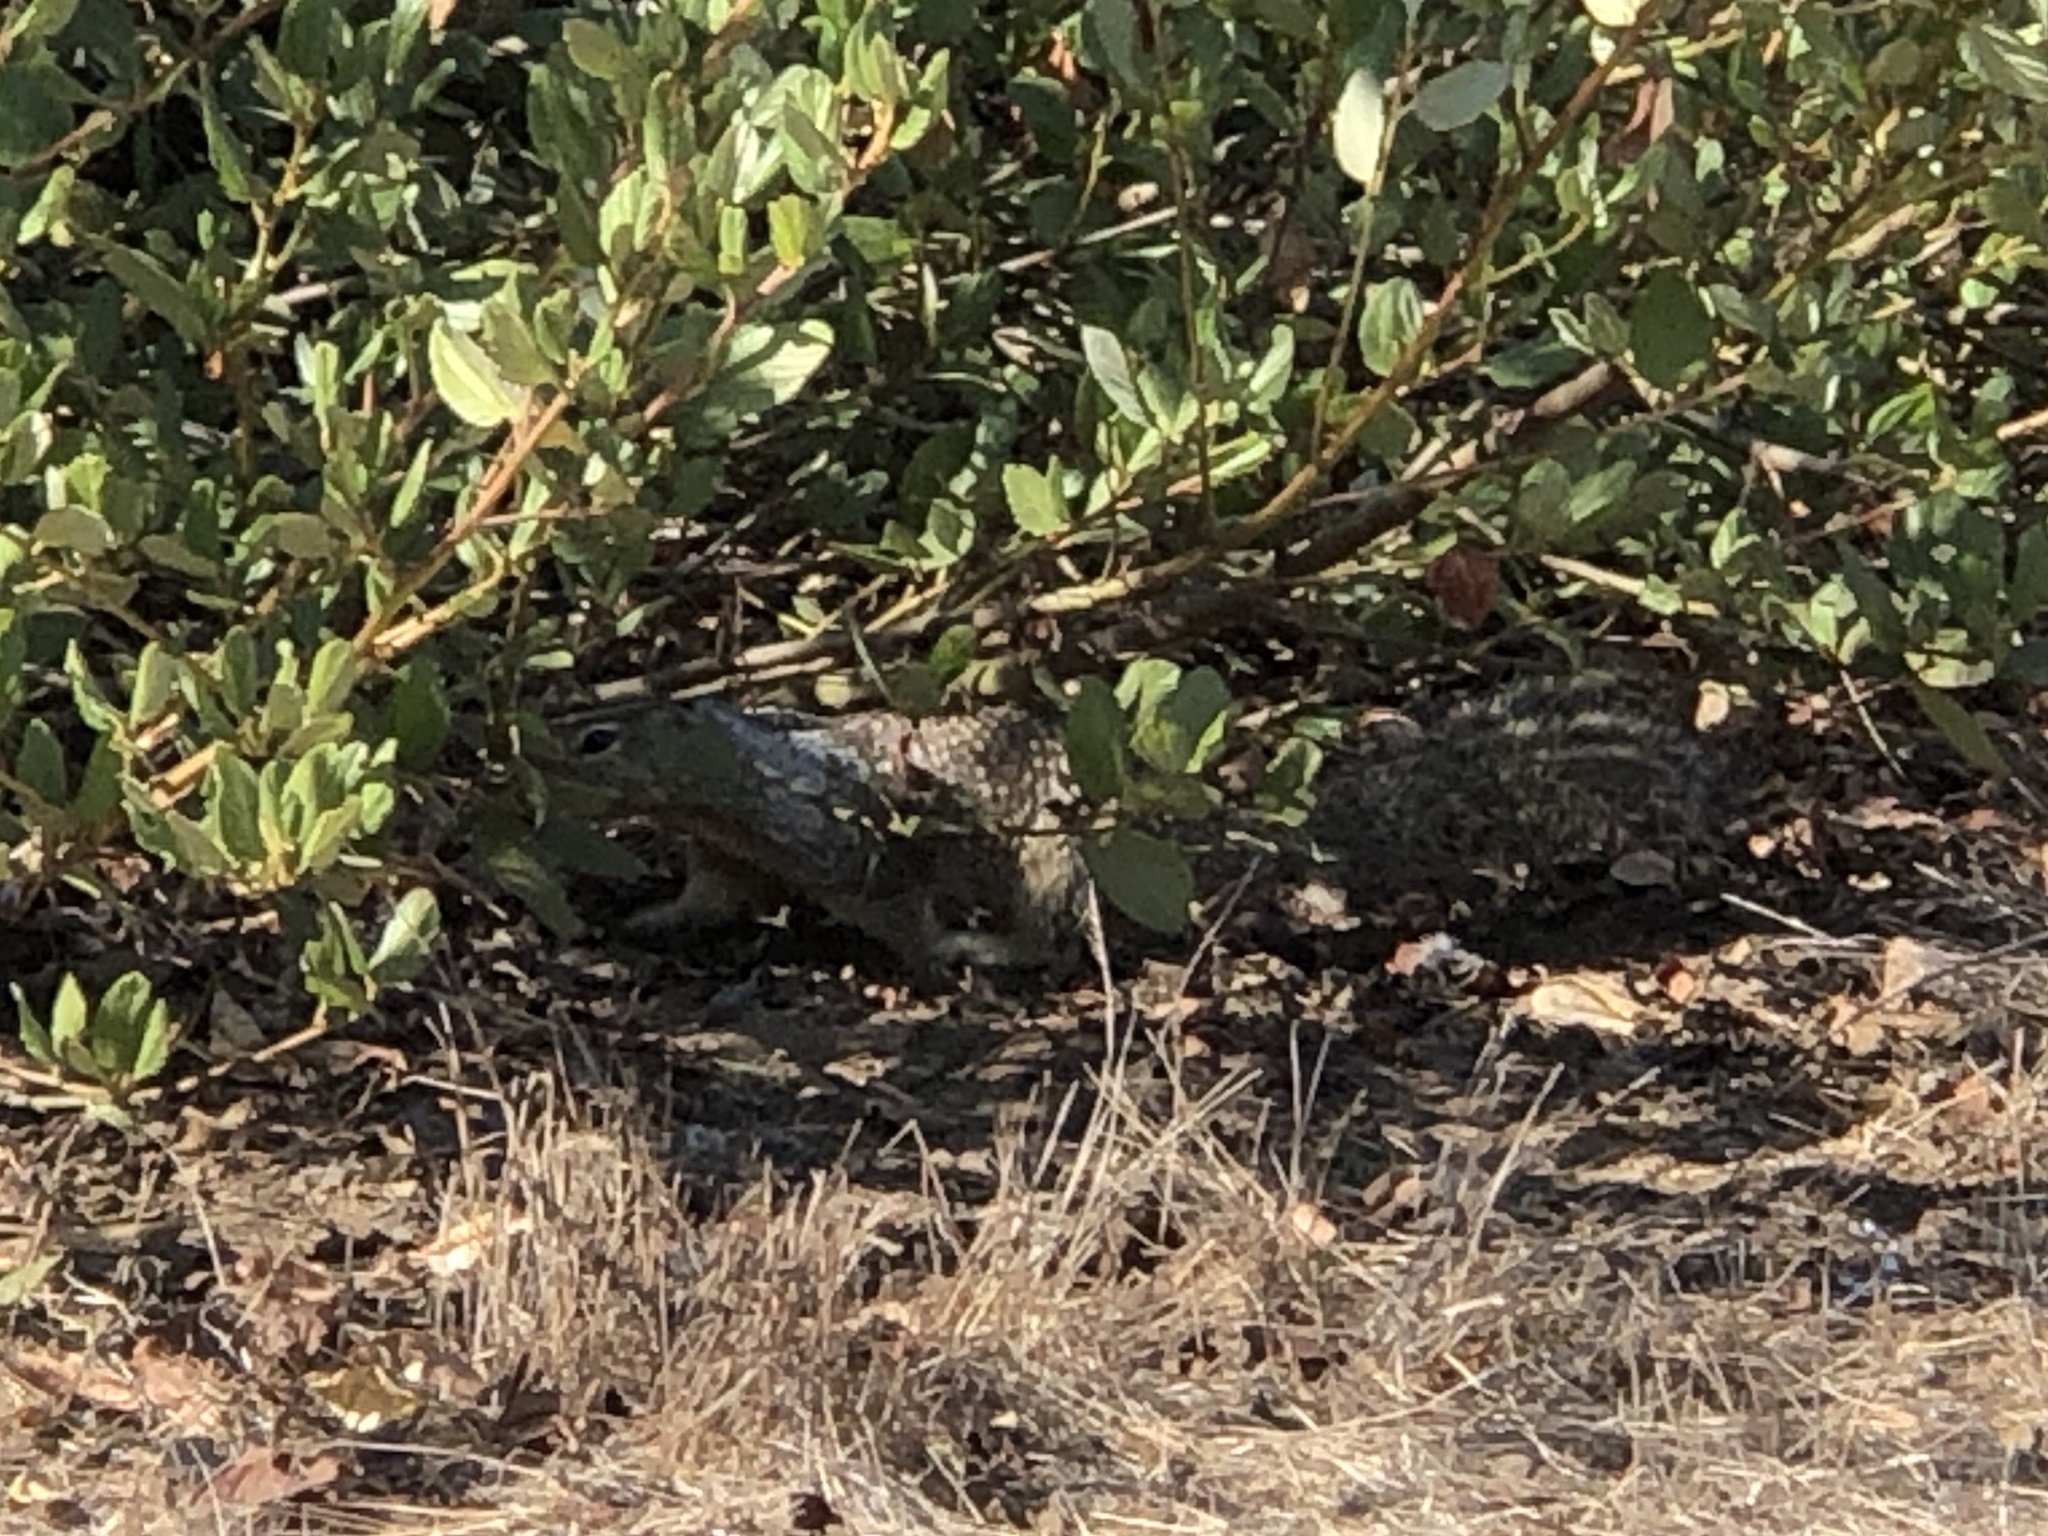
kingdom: Animalia
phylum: Chordata
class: Mammalia
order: Rodentia
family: Sciuridae
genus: Otospermophilus
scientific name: Otospermophilus beecheyi
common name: California ground squirrel
